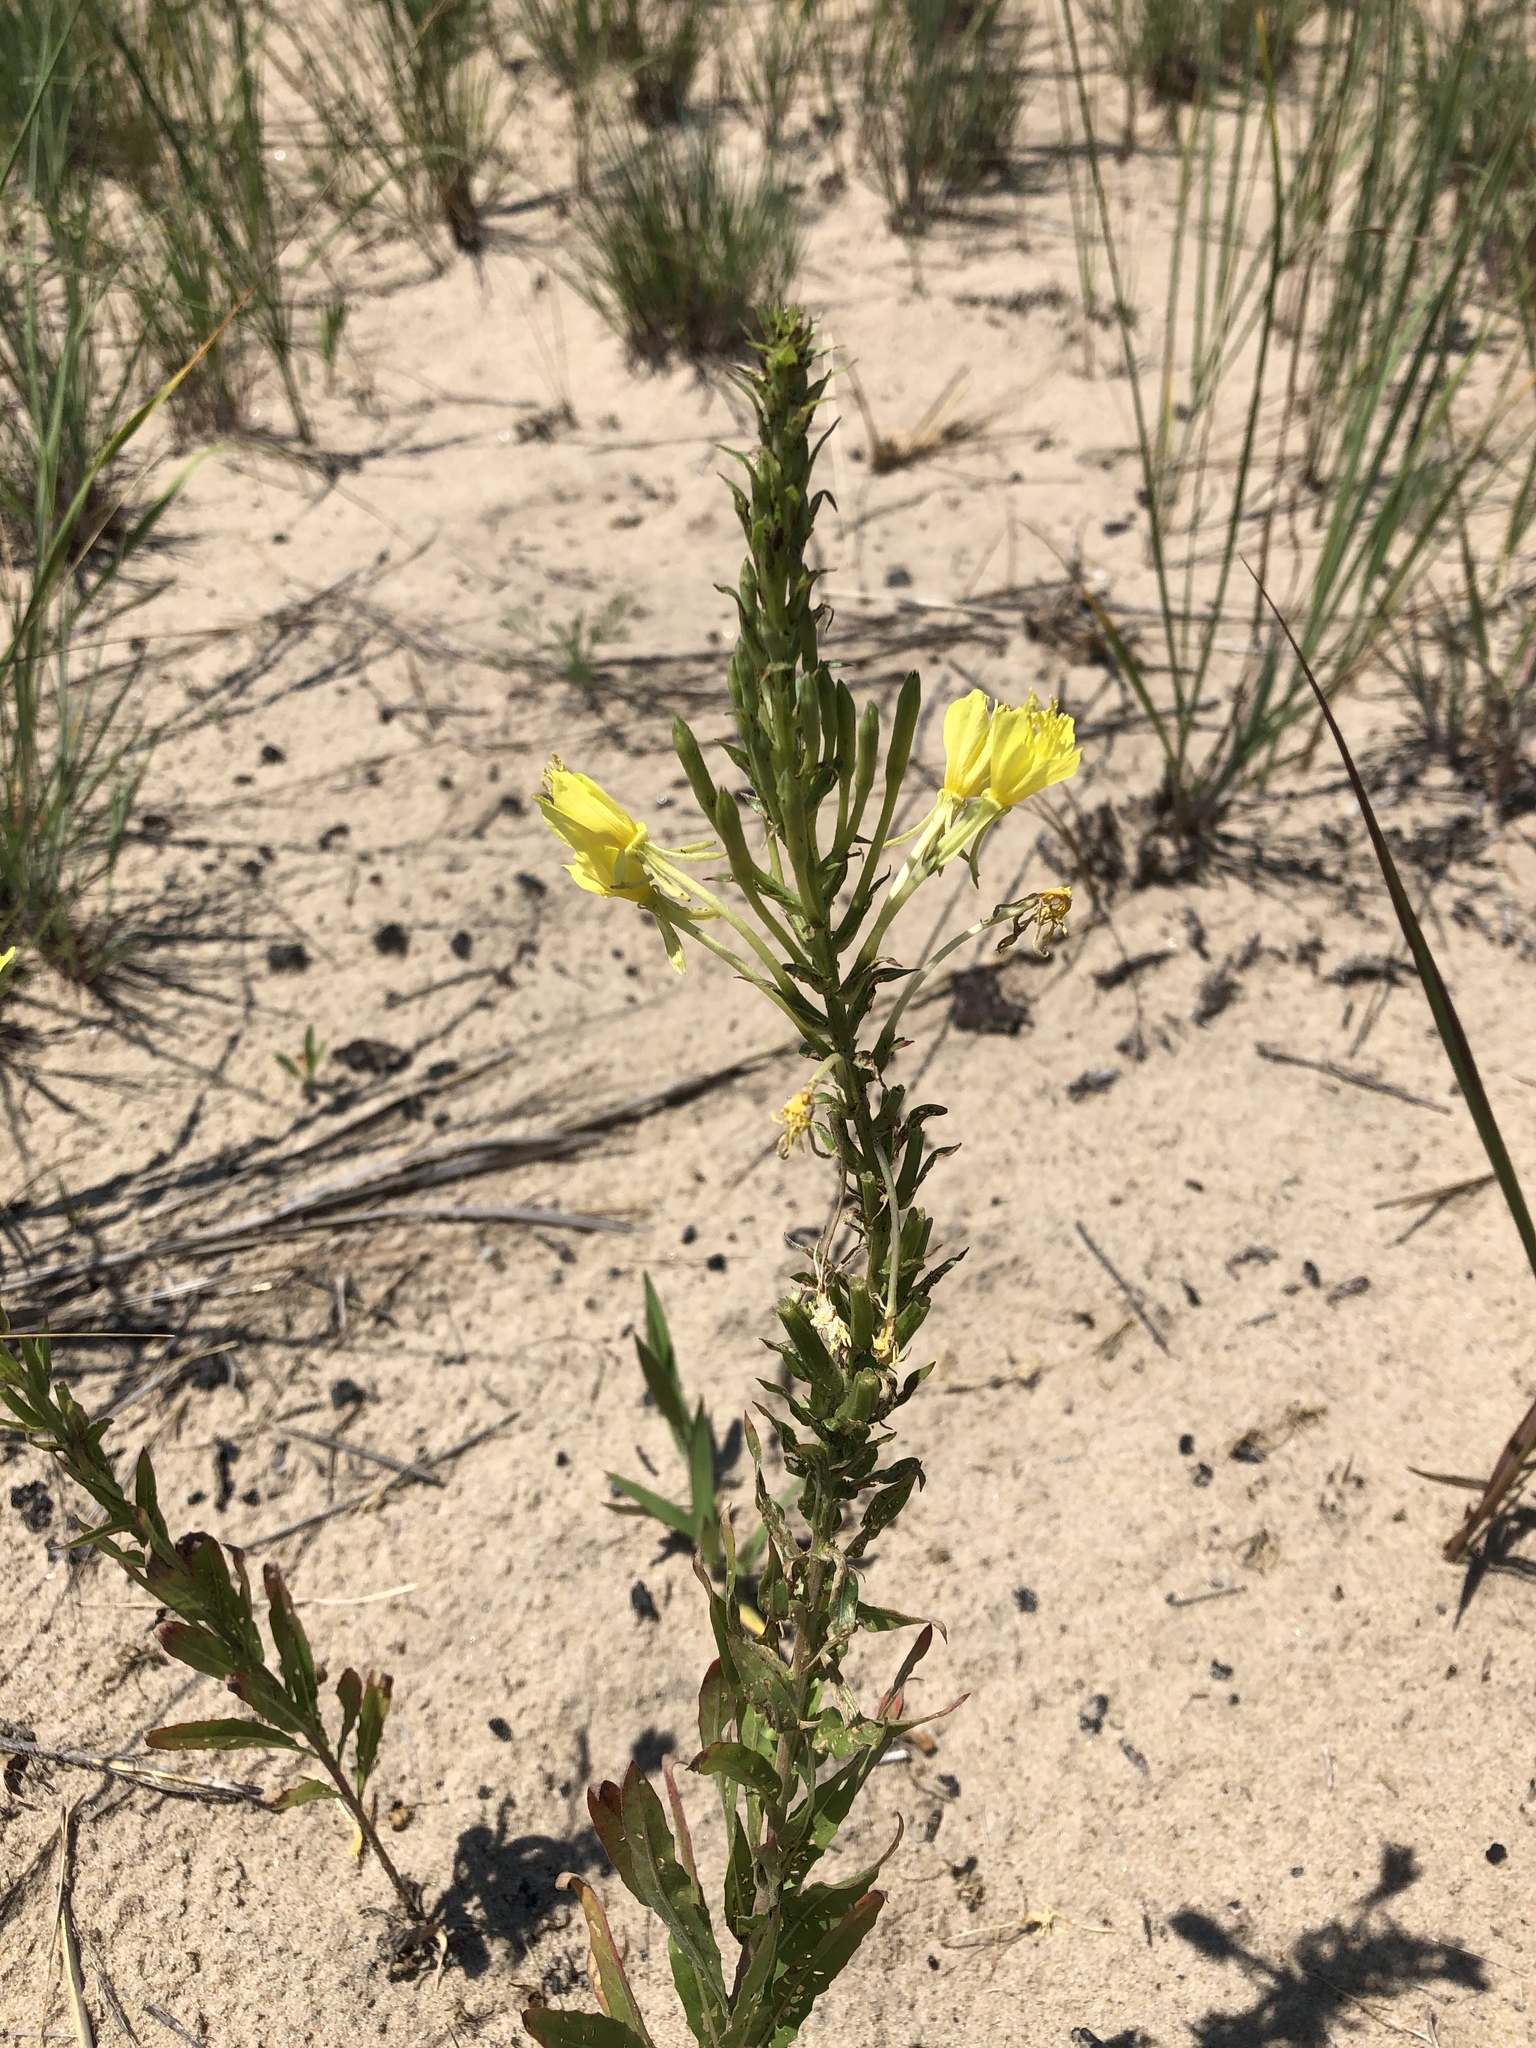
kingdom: Plantae
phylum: Tracheophyta
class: Magnoliopsida
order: Myrtales
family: Onagraceae
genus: Oenothera
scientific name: Oenothera clelandii
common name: Cleland's evening-primrose
